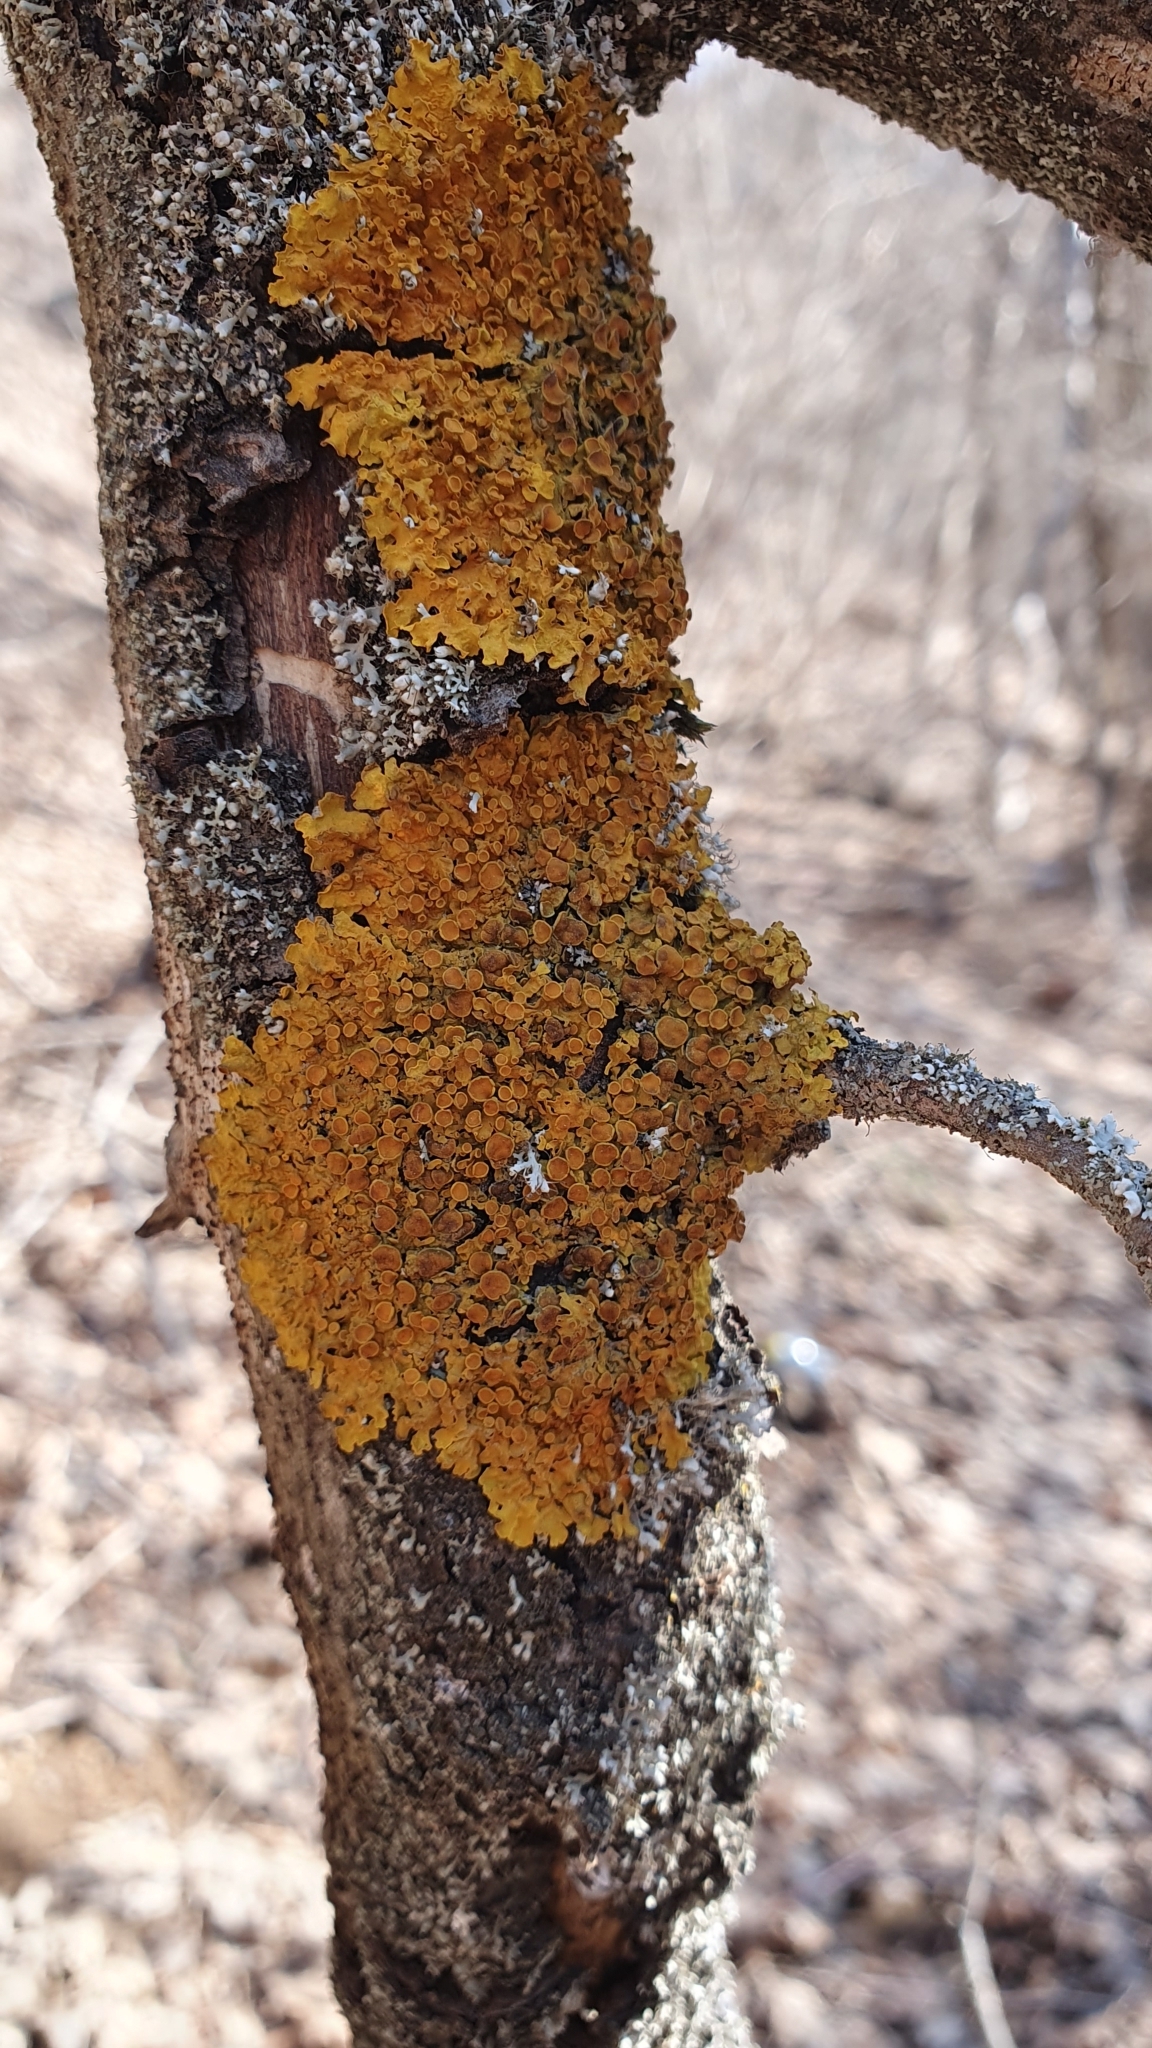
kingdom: Fungi
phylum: Ascomycota
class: Lecanoromycetes
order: Teloschistales
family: Teloschistaceae
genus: Xanthoria
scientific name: Xanthoria parietina
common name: Common orange lichen
